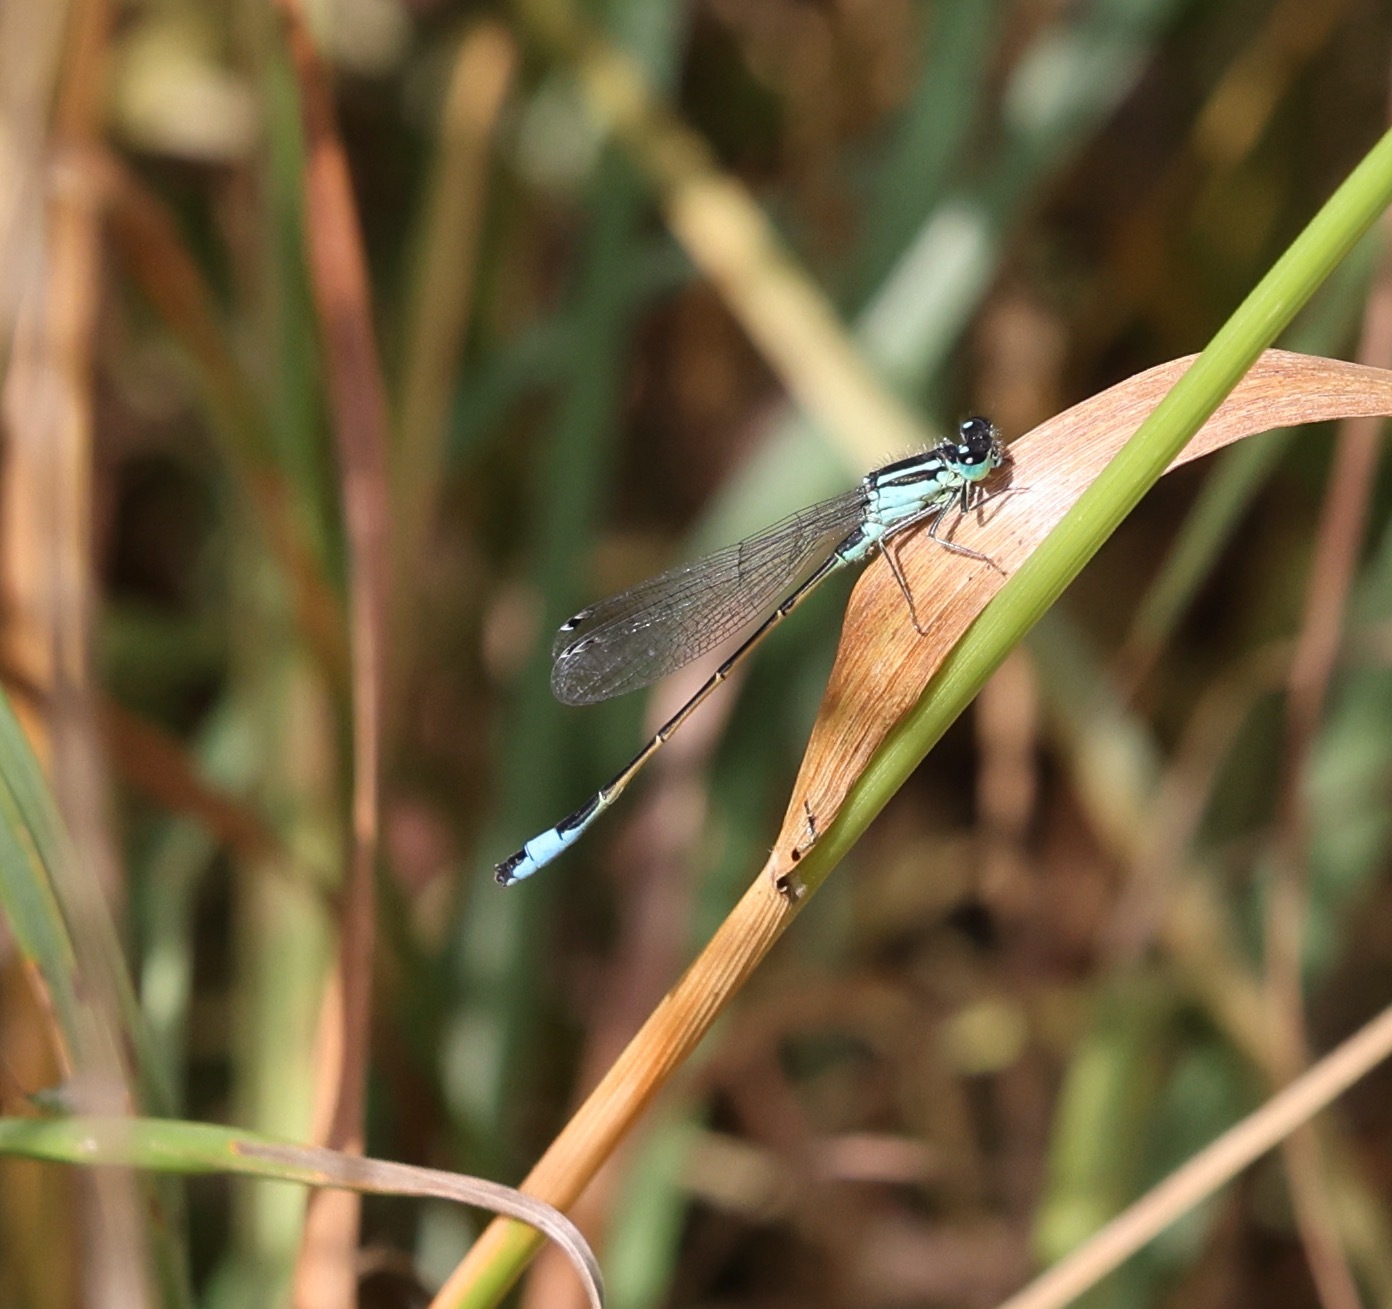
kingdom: Animalia
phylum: Arthropoda
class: Insecta
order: Odonata
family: Coenagrionidae
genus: Ischnura
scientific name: Ischnura elegans
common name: Blue-tailed damselfly
